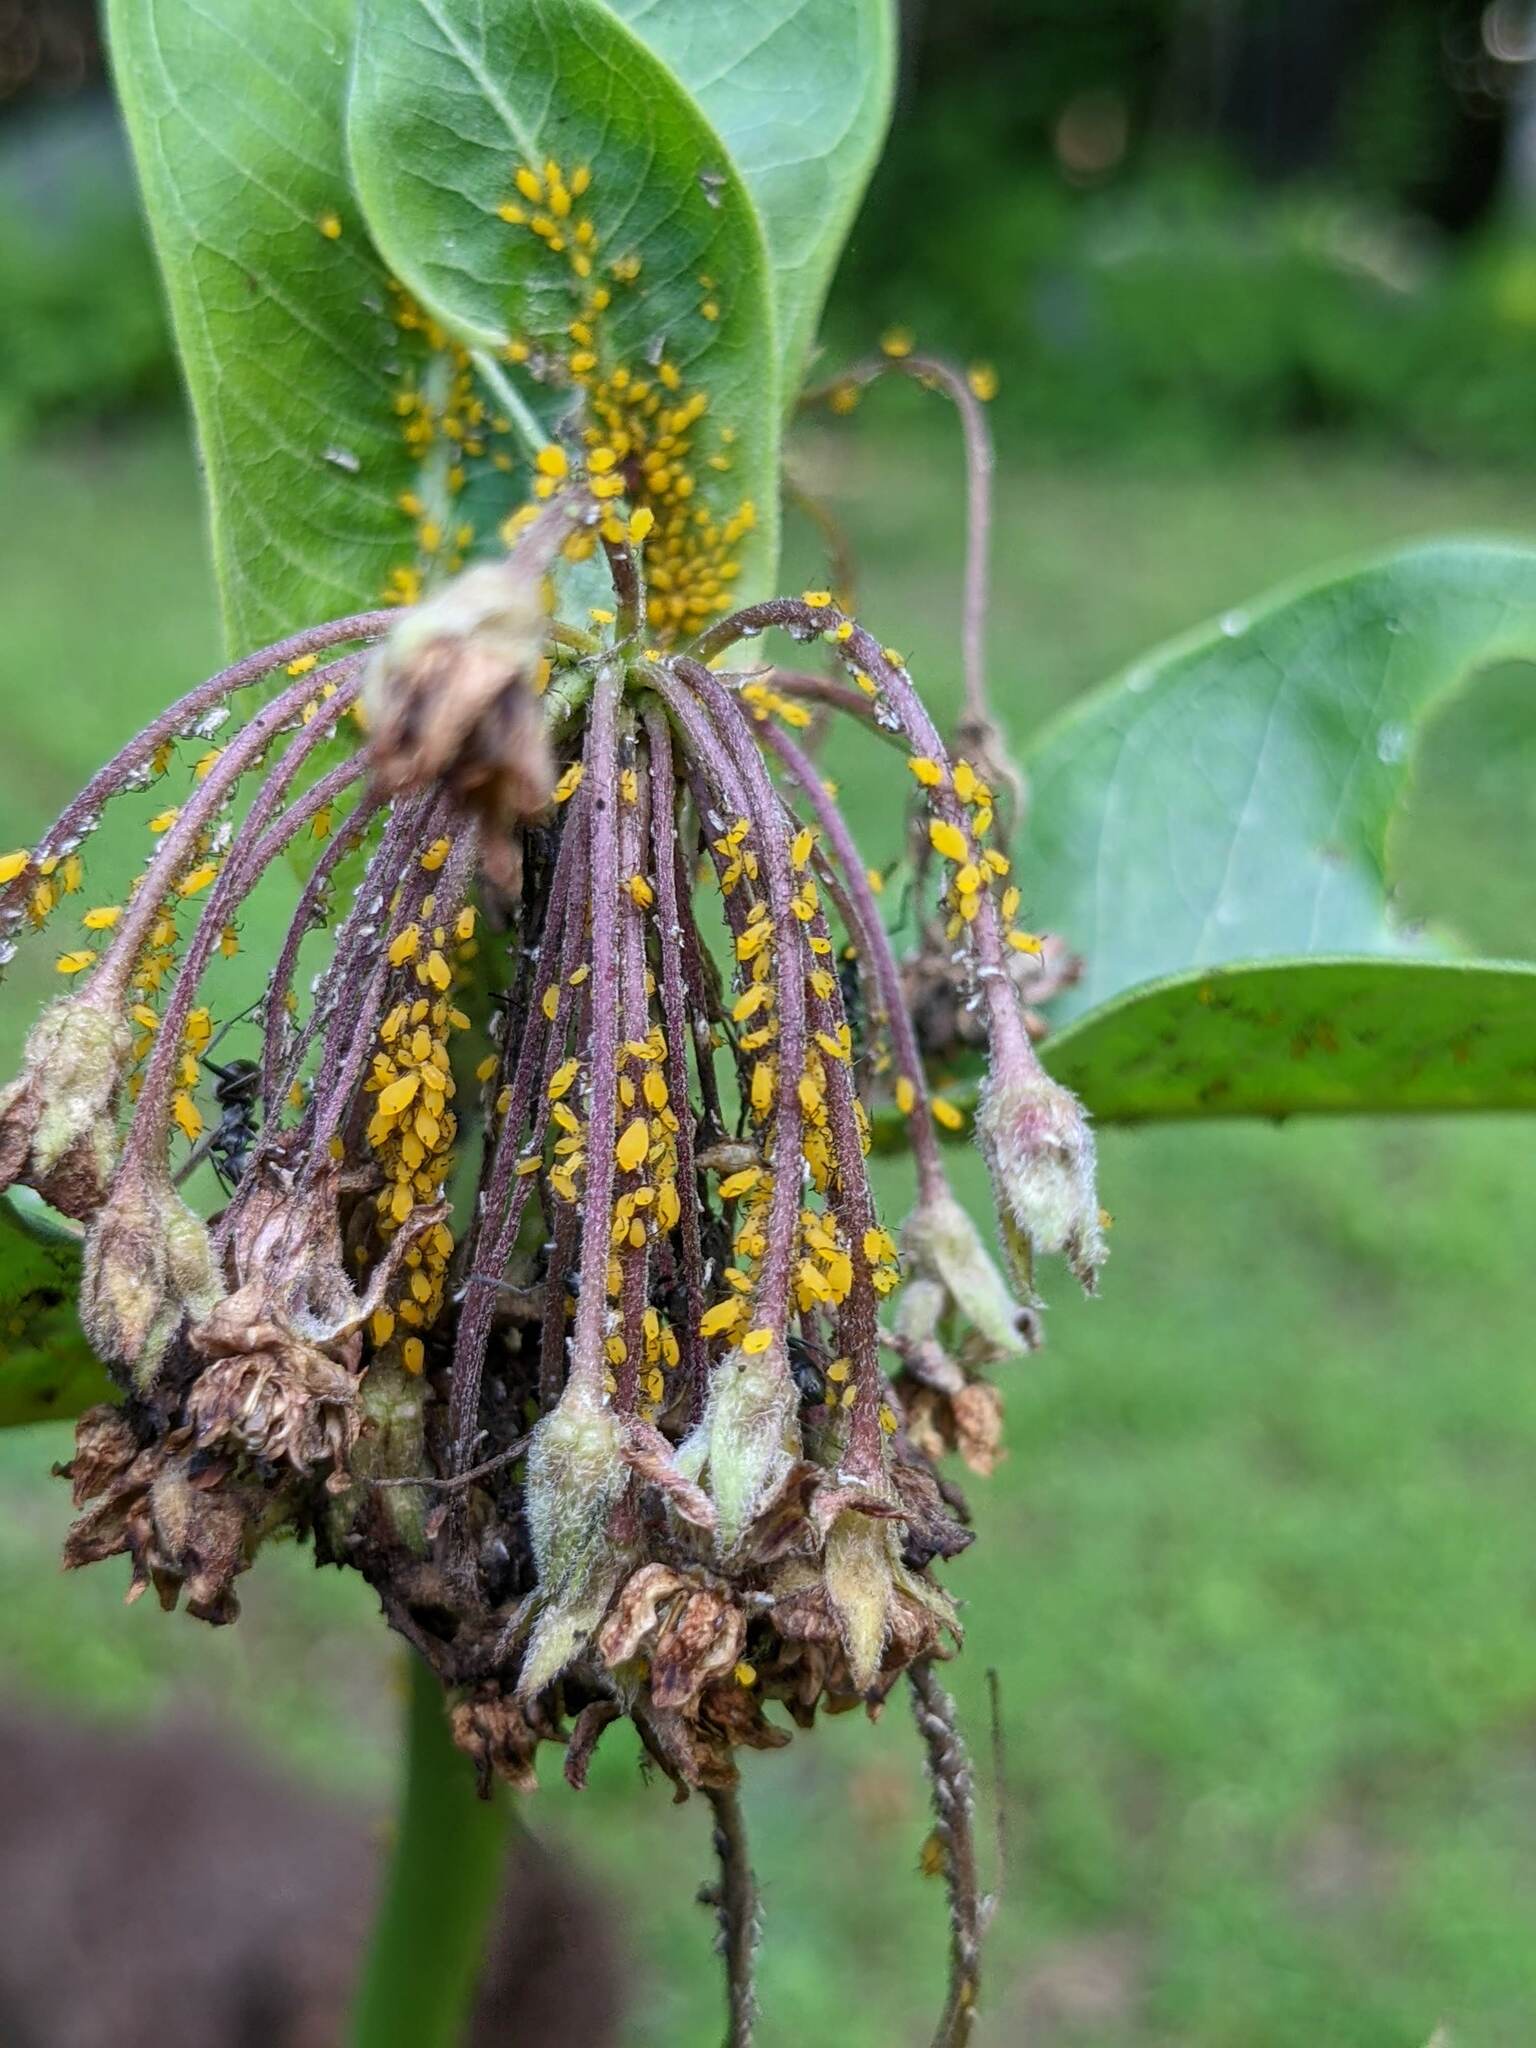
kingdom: Animalia
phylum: Arthropoda
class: Insecta
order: Hemiptera
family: Aphididae
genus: Aphis
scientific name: Aphis nerii
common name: Oleander aphid
